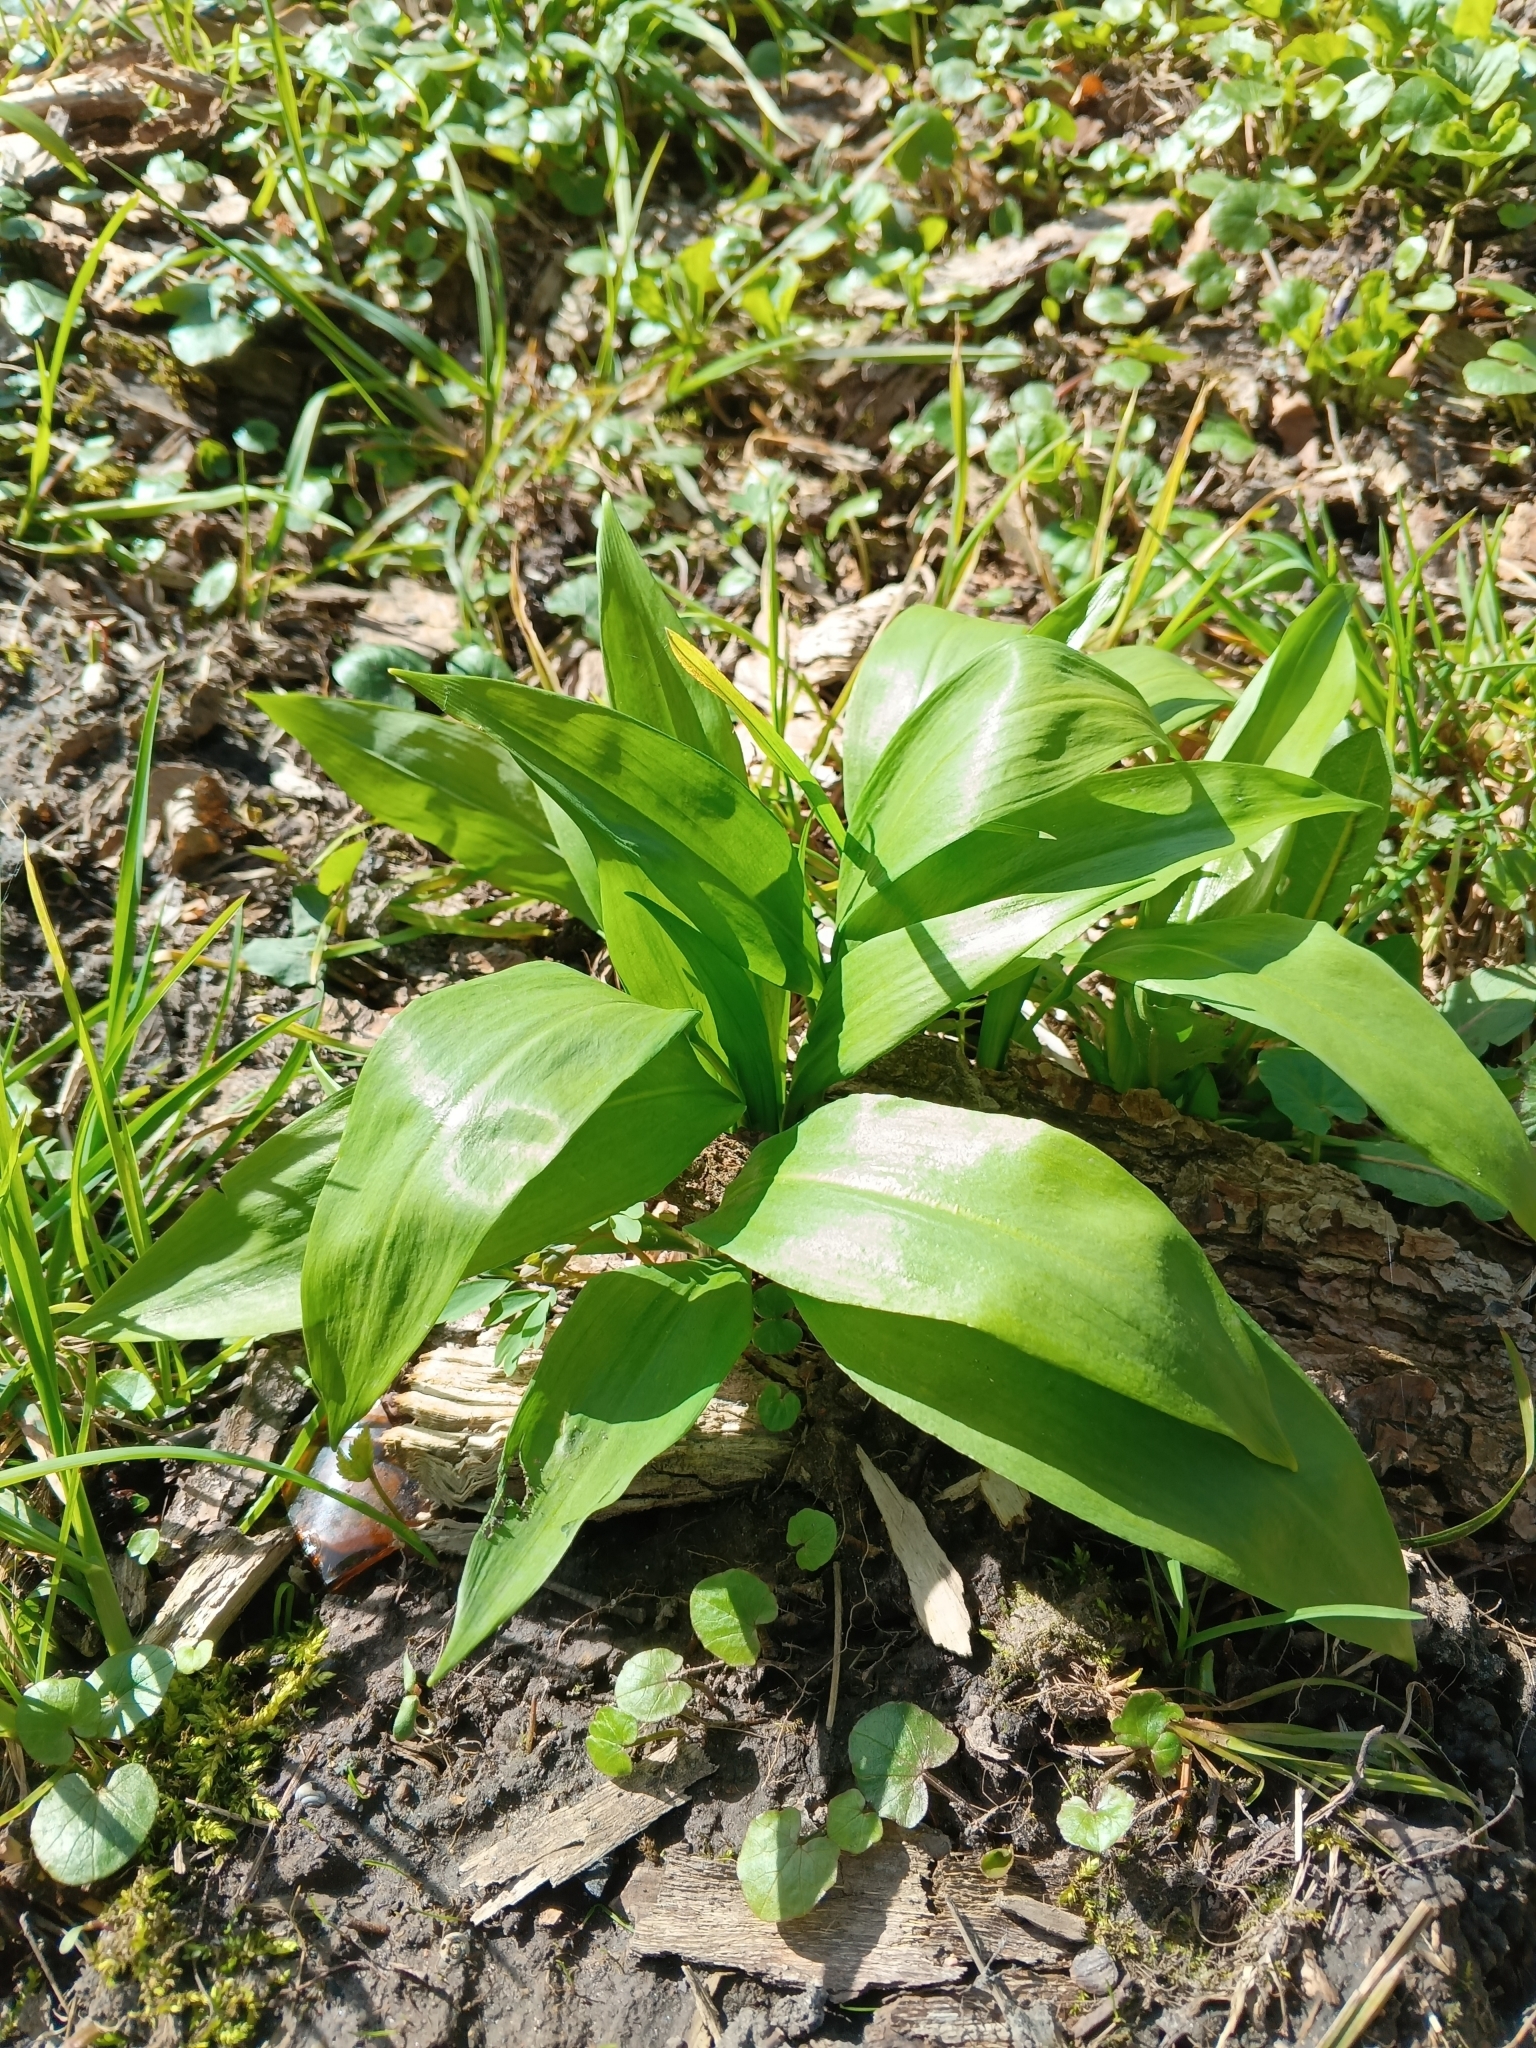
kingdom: Plantae
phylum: Tracheophyta
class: Liliopsida
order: Asparagales
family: Amaryllidaceae
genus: Allium
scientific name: Allium ursinum
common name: Ramsons
